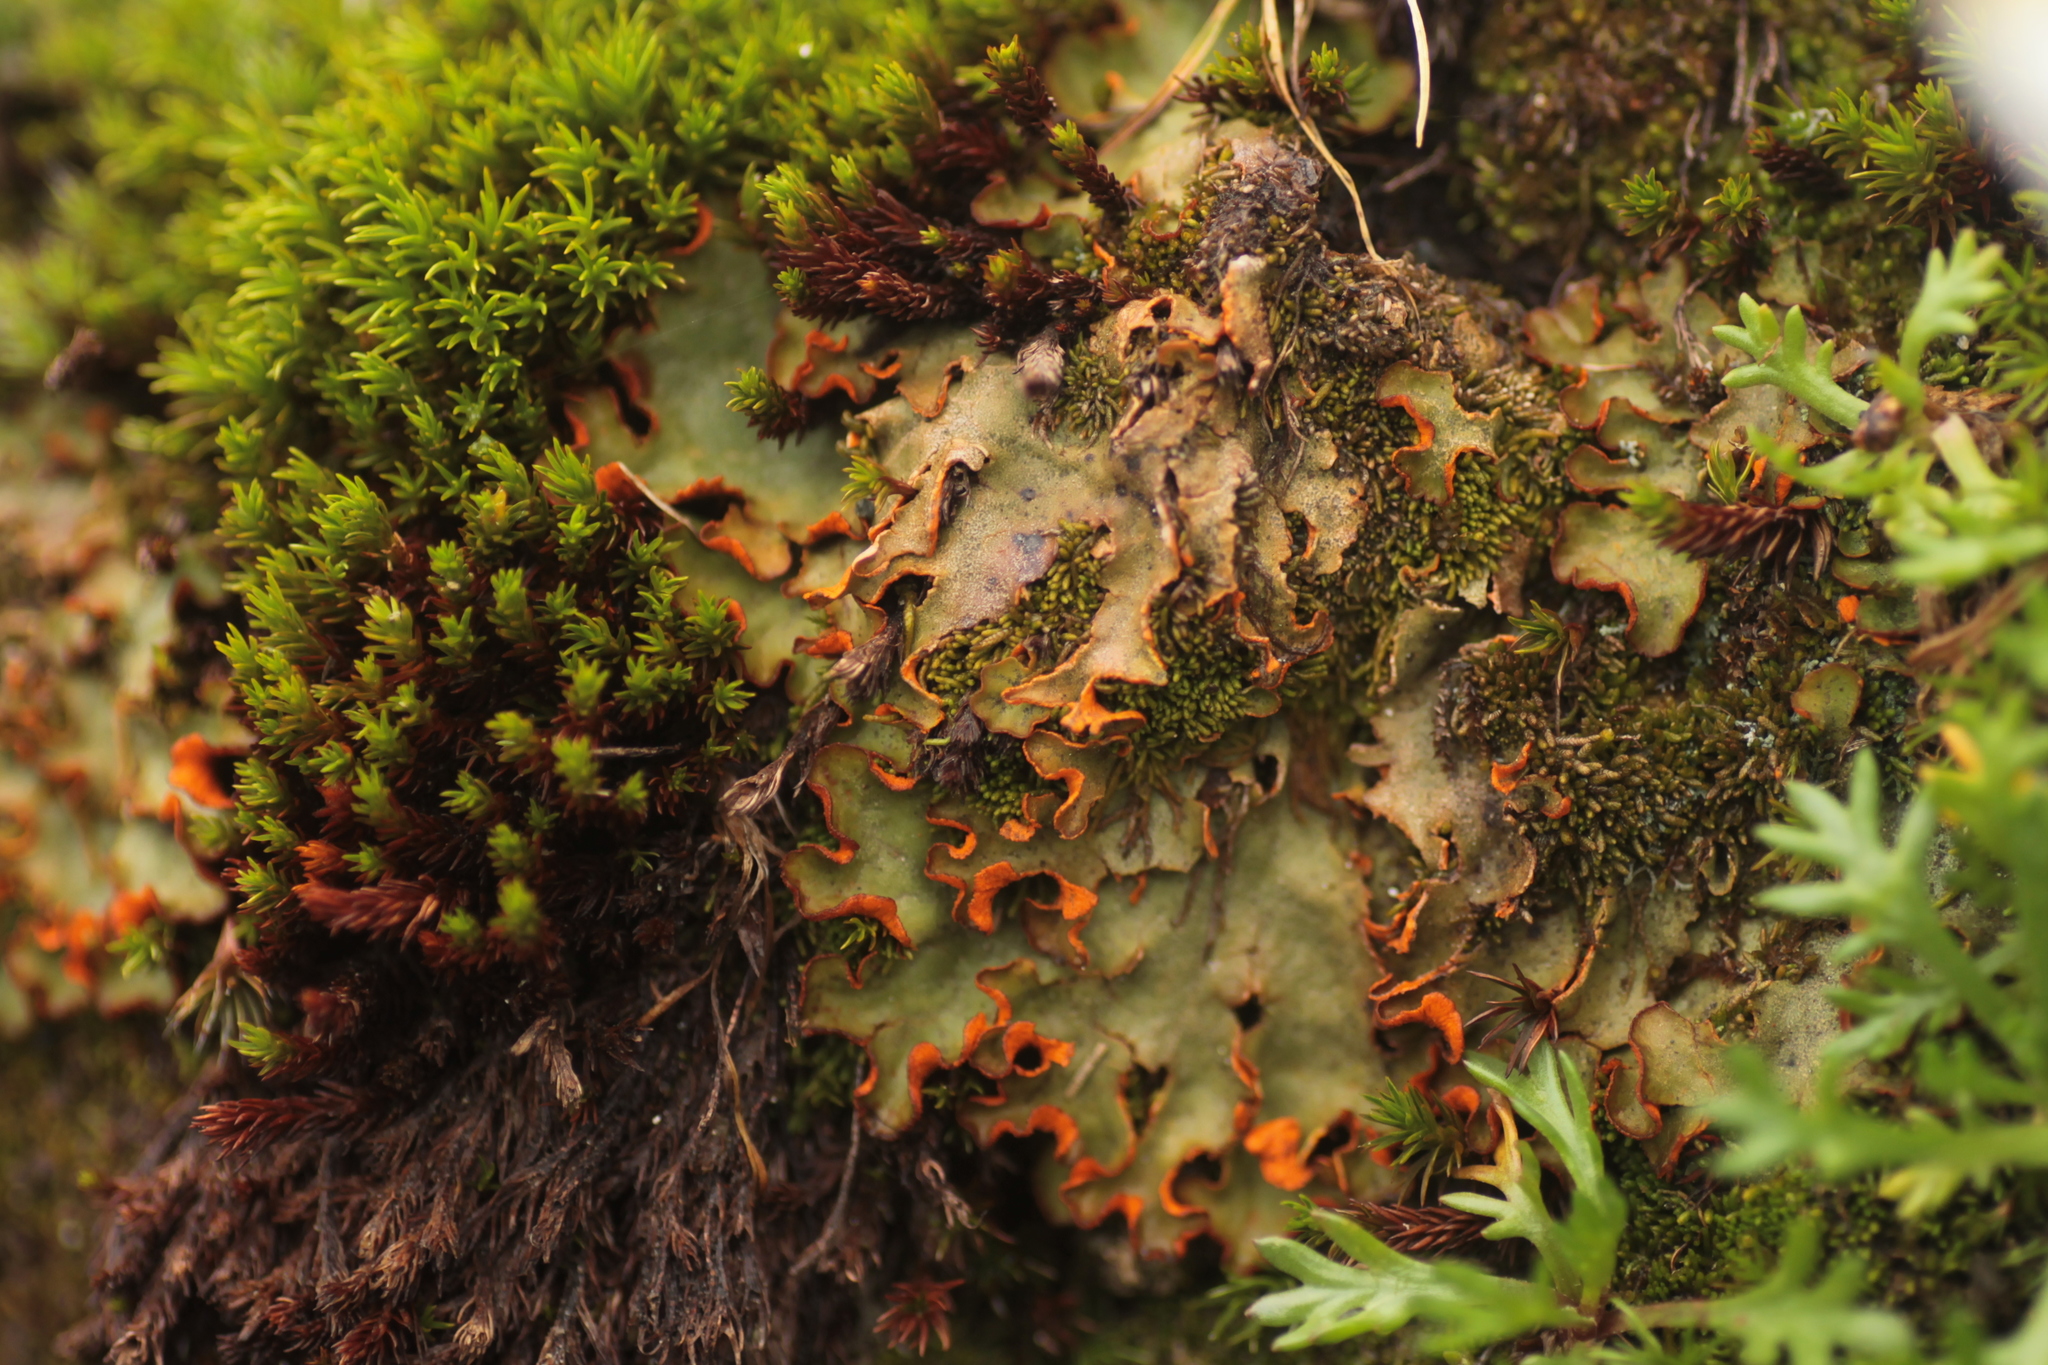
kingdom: Fungi
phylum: Ascomycota
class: Lecanoromycetes
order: Peltigerales
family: Peltigeraceae
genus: Solorina
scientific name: Solorina crocea
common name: Mountain saffron
